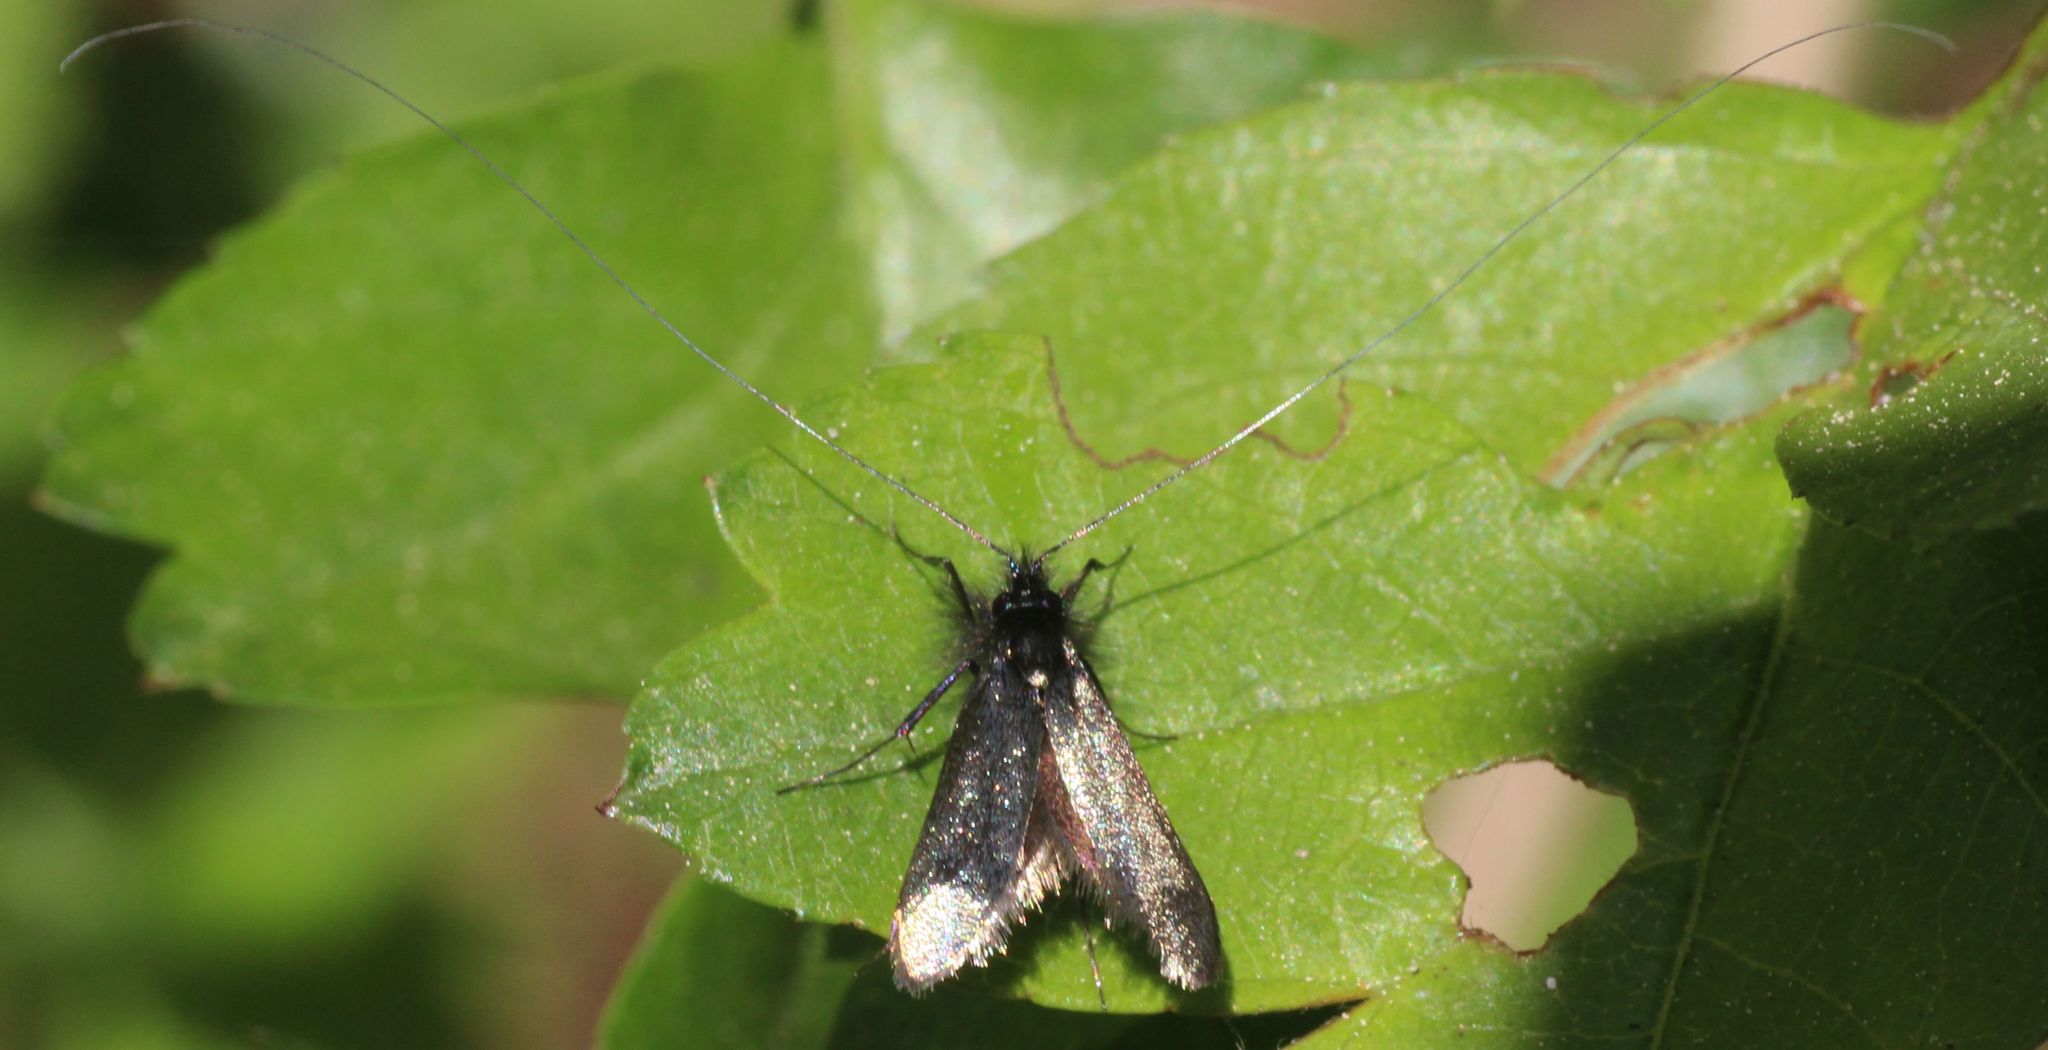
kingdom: Animalia
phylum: Arthropoda
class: Insecta
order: Lepidoptera
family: Adelidae
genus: Adela
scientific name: Adela viridella
